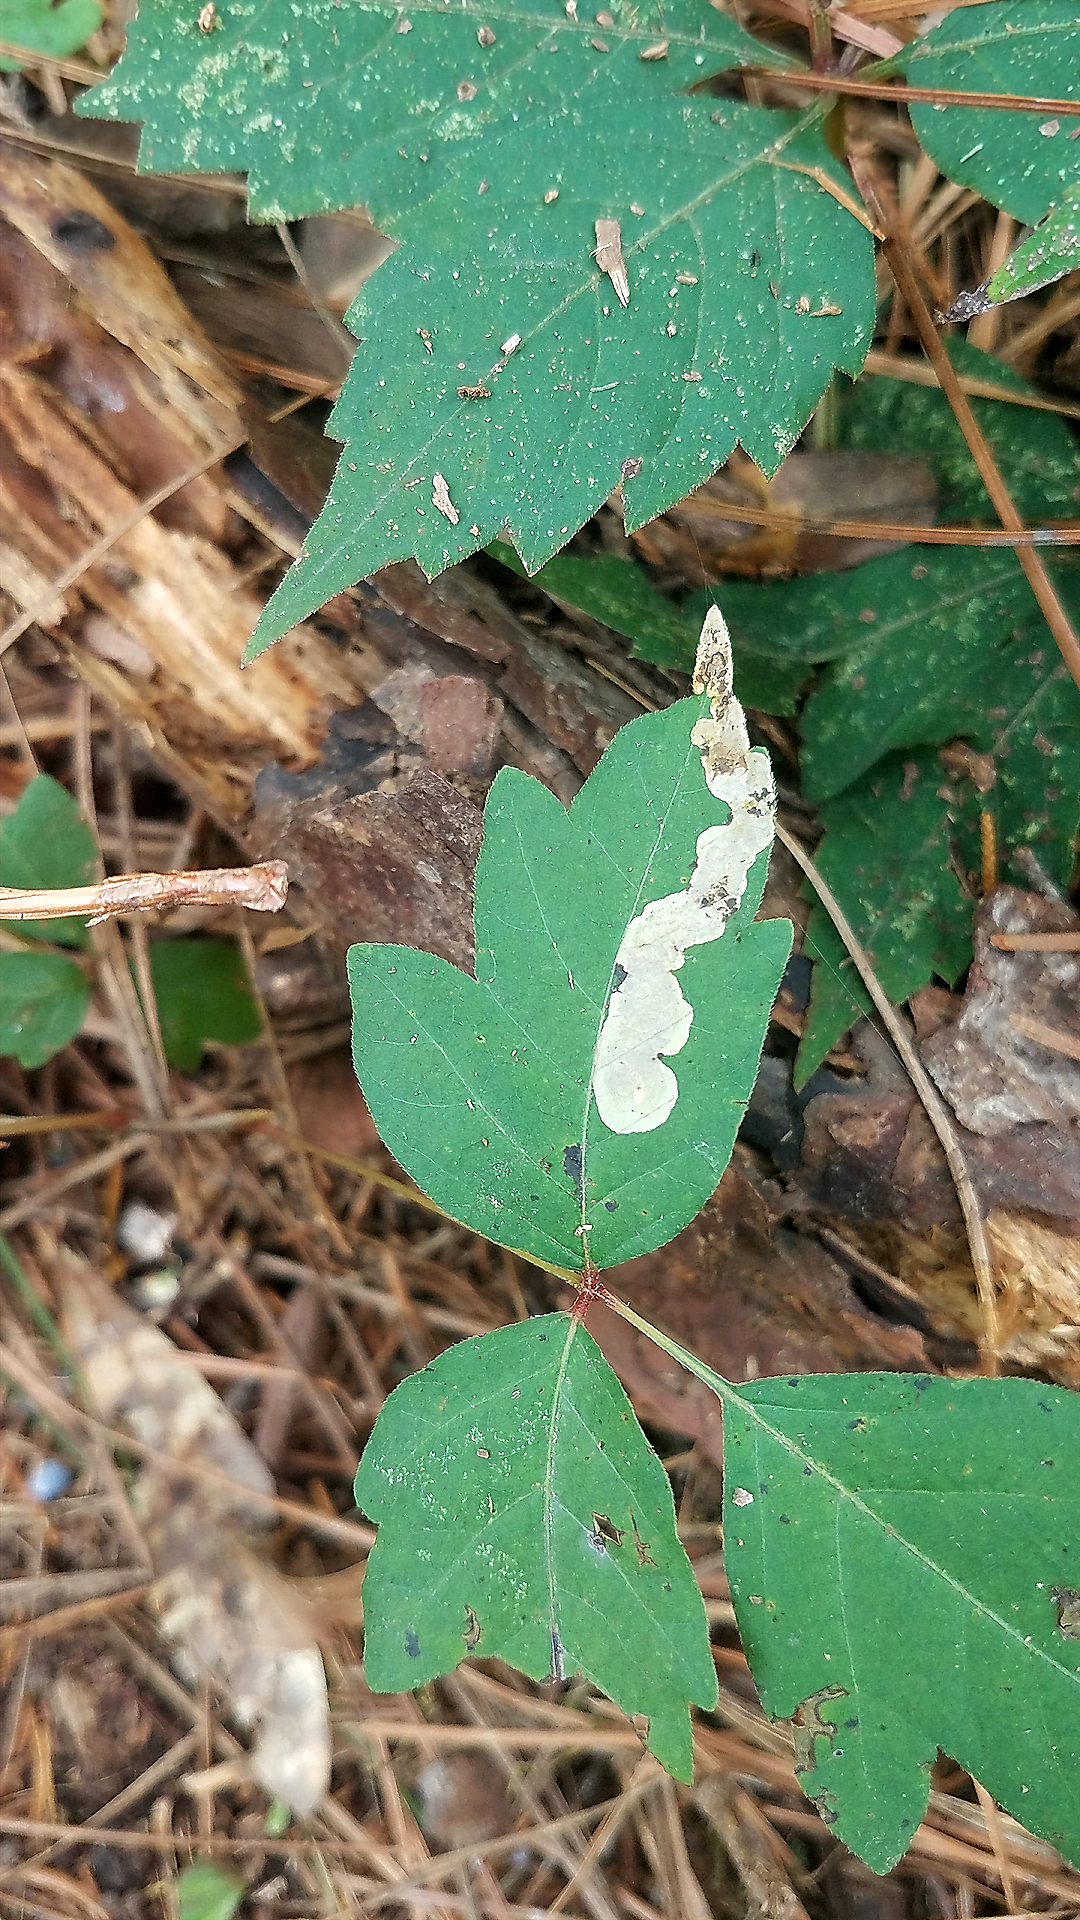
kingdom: Animalia
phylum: Arthropoda
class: Insecta
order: Lepidoptera
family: Gracillariidae
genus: Cameraria
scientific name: Cameraria guttifinitella
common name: Poison ivy leaf-miner moth
